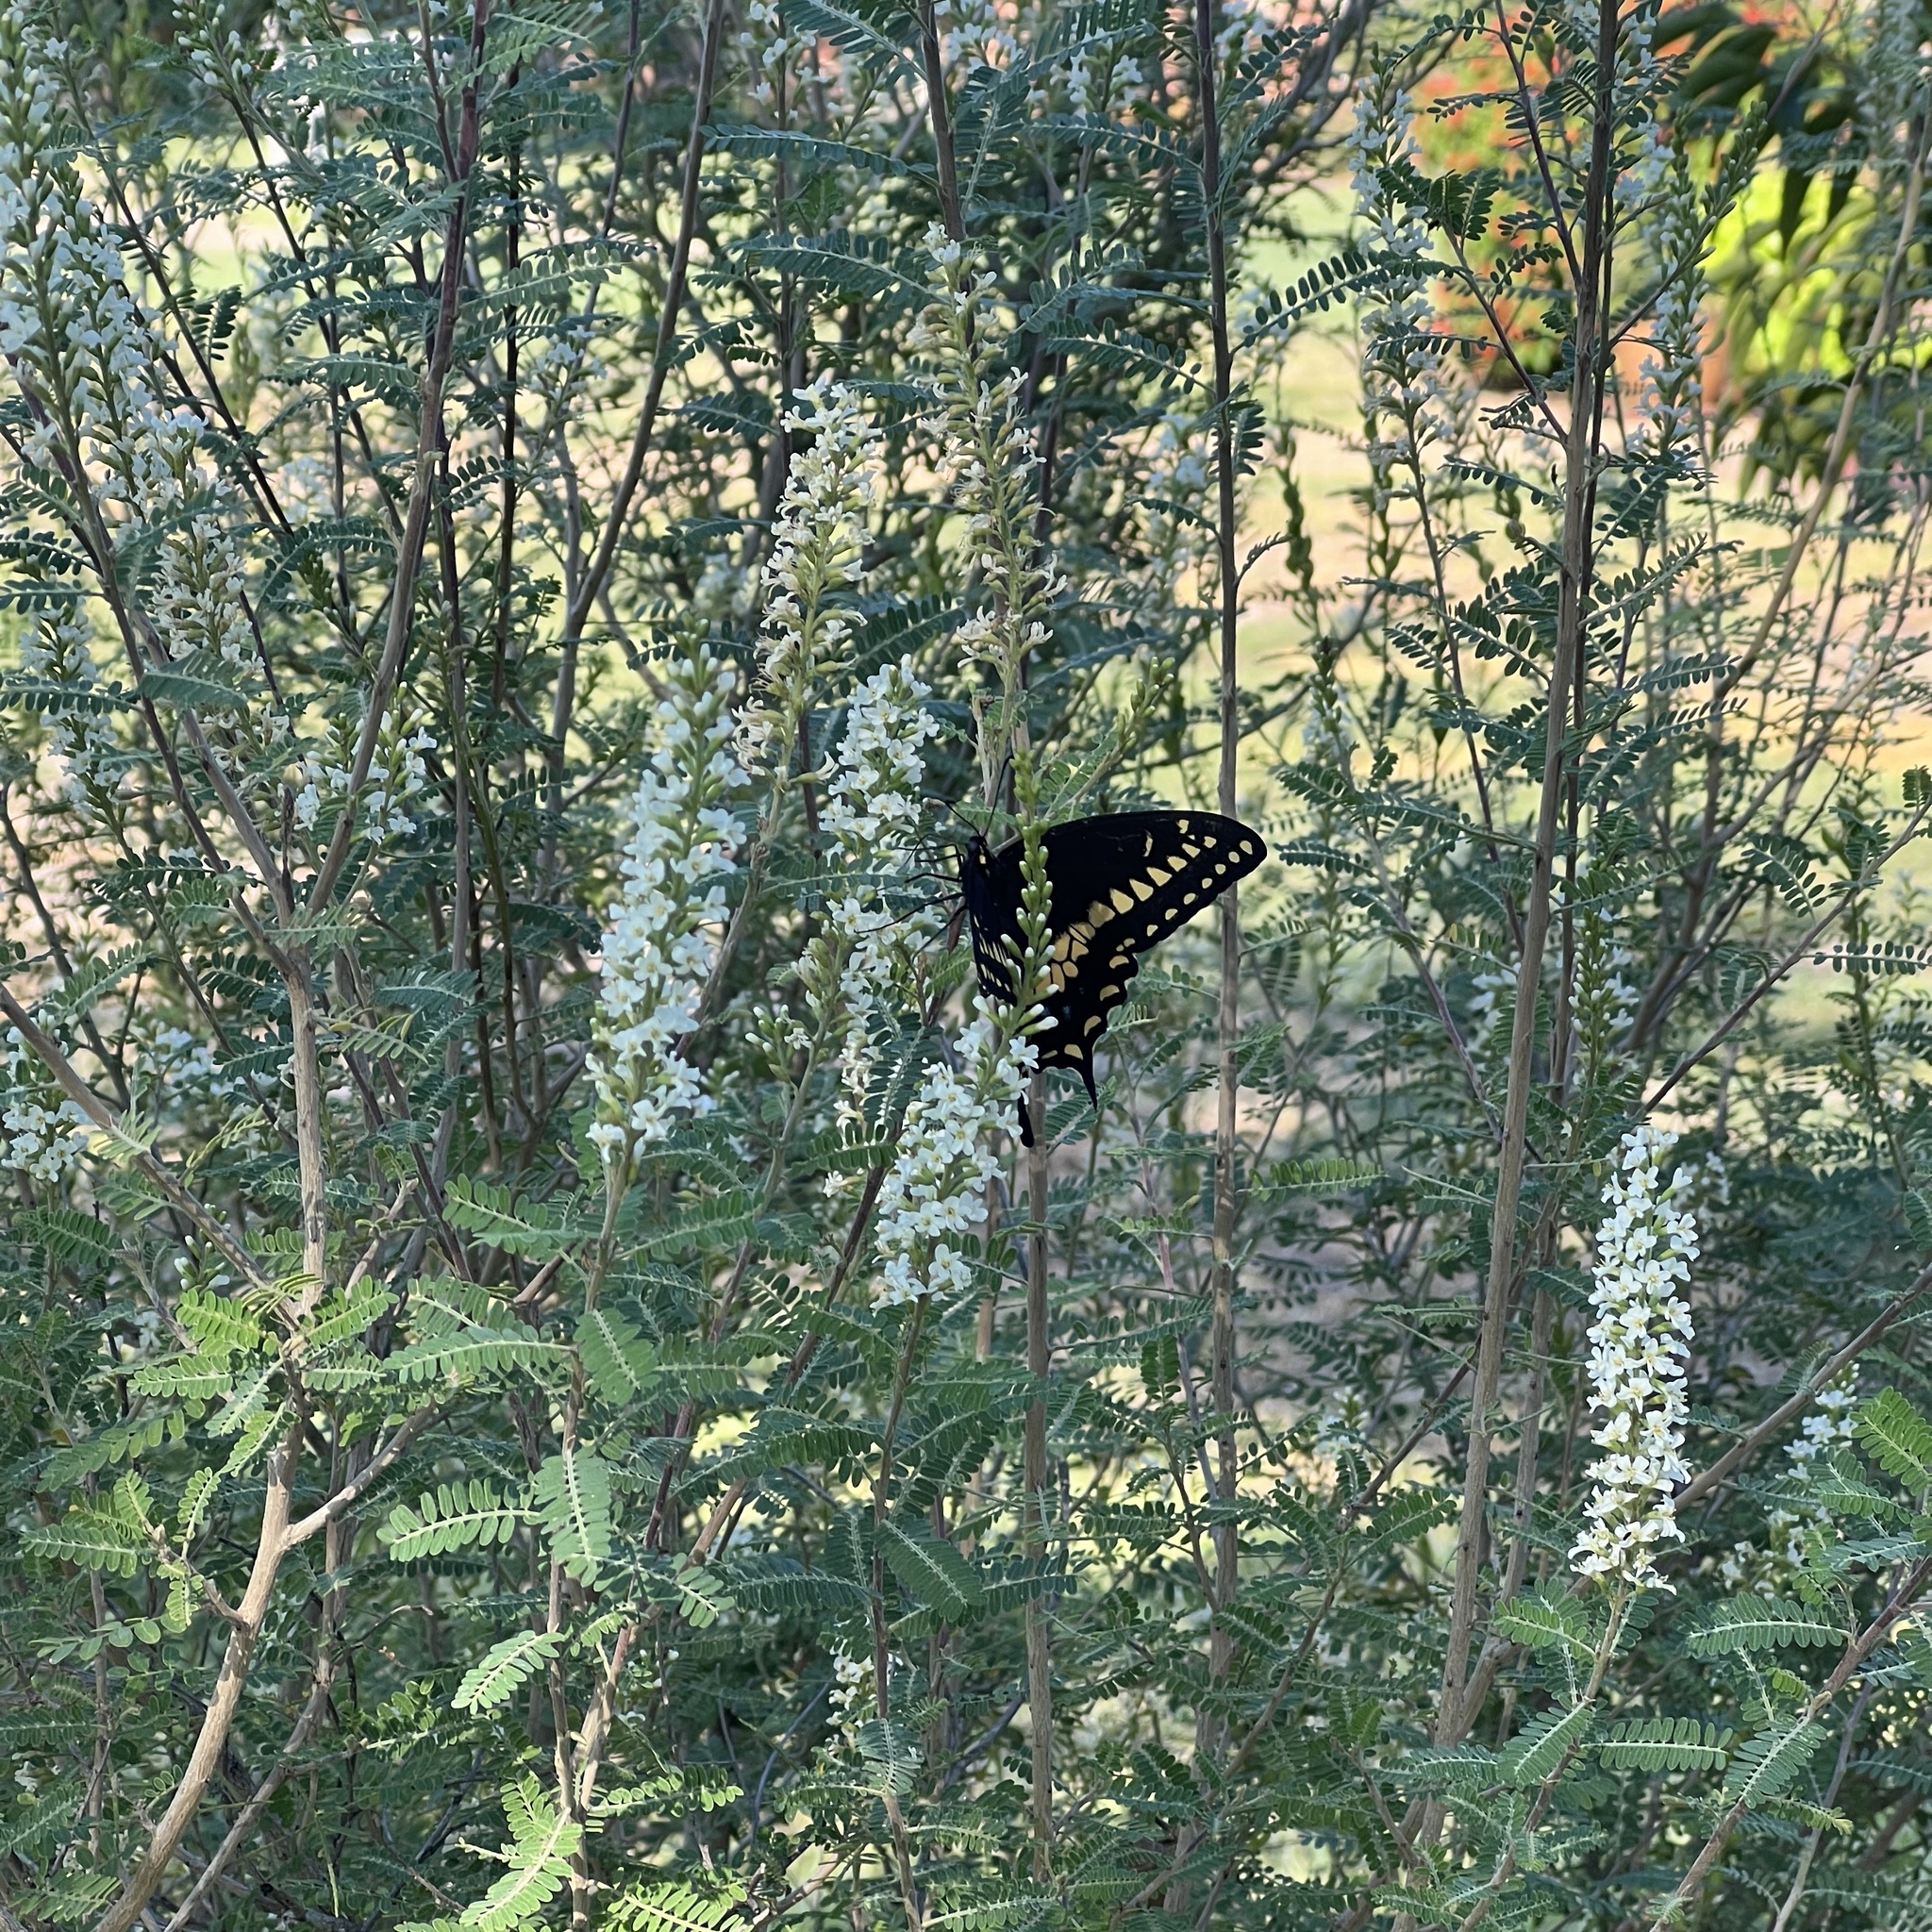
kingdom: Animalia
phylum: Arthropoda
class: Insecta
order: Lepidoptera
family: Papilionidae
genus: Papilio
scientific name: Papilio polyxenes
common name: Black swallowtail
